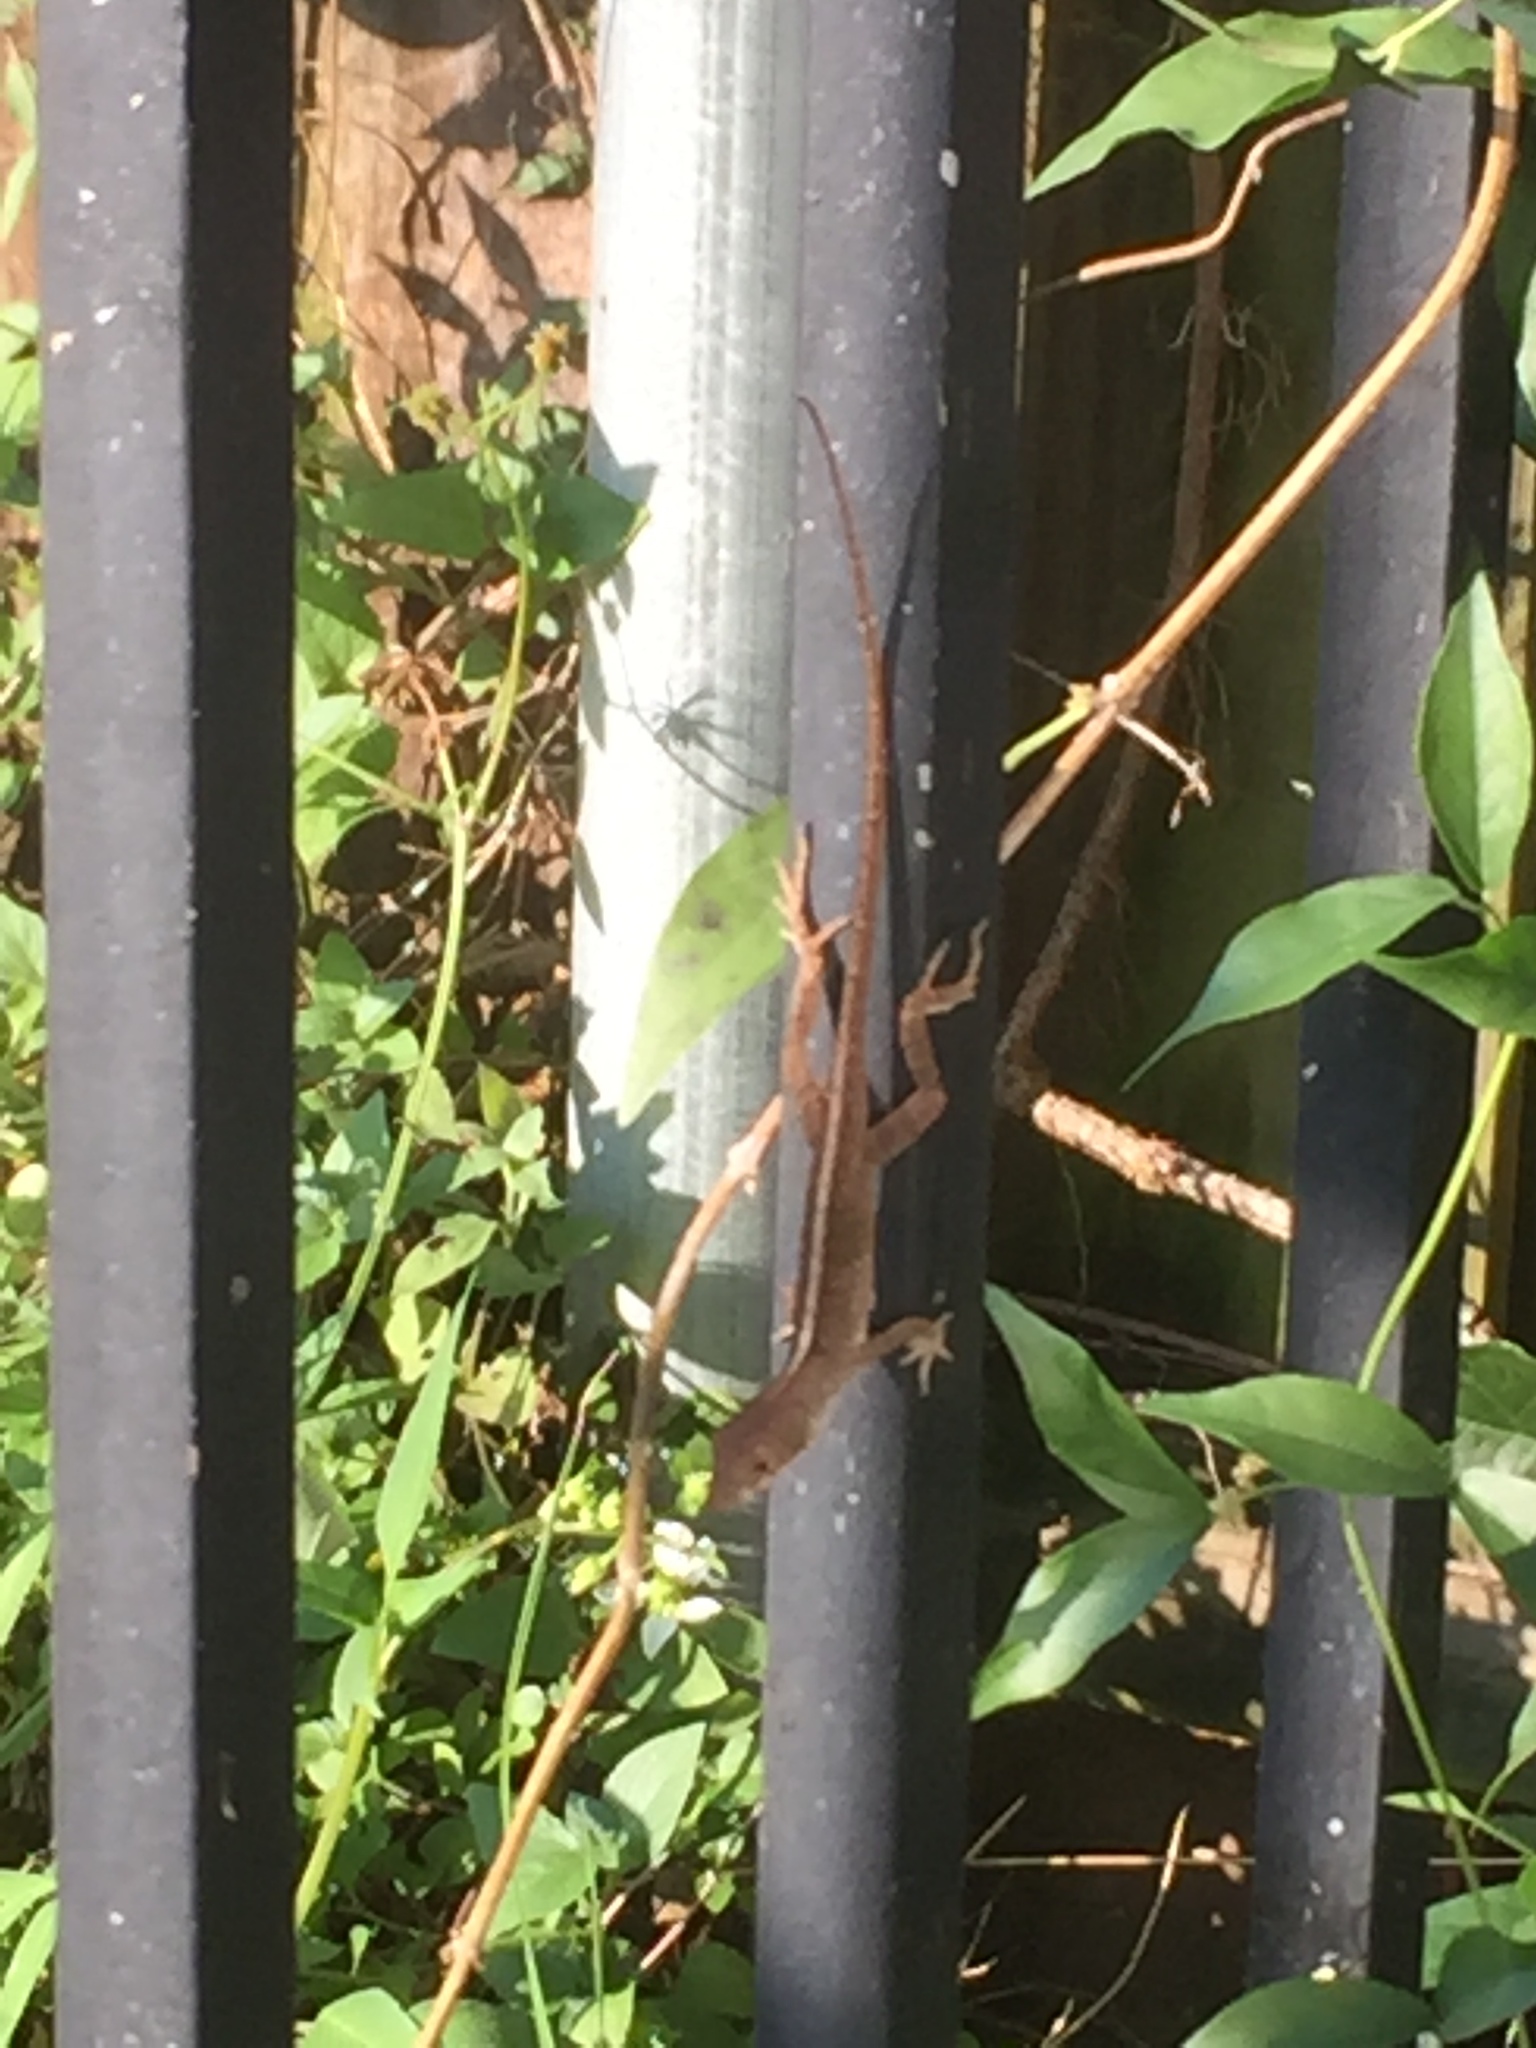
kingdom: Animalia
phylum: Chordata
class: Squamata
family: Dactyloidae
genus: Anolis
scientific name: Anolis sagrei
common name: Brown anole
